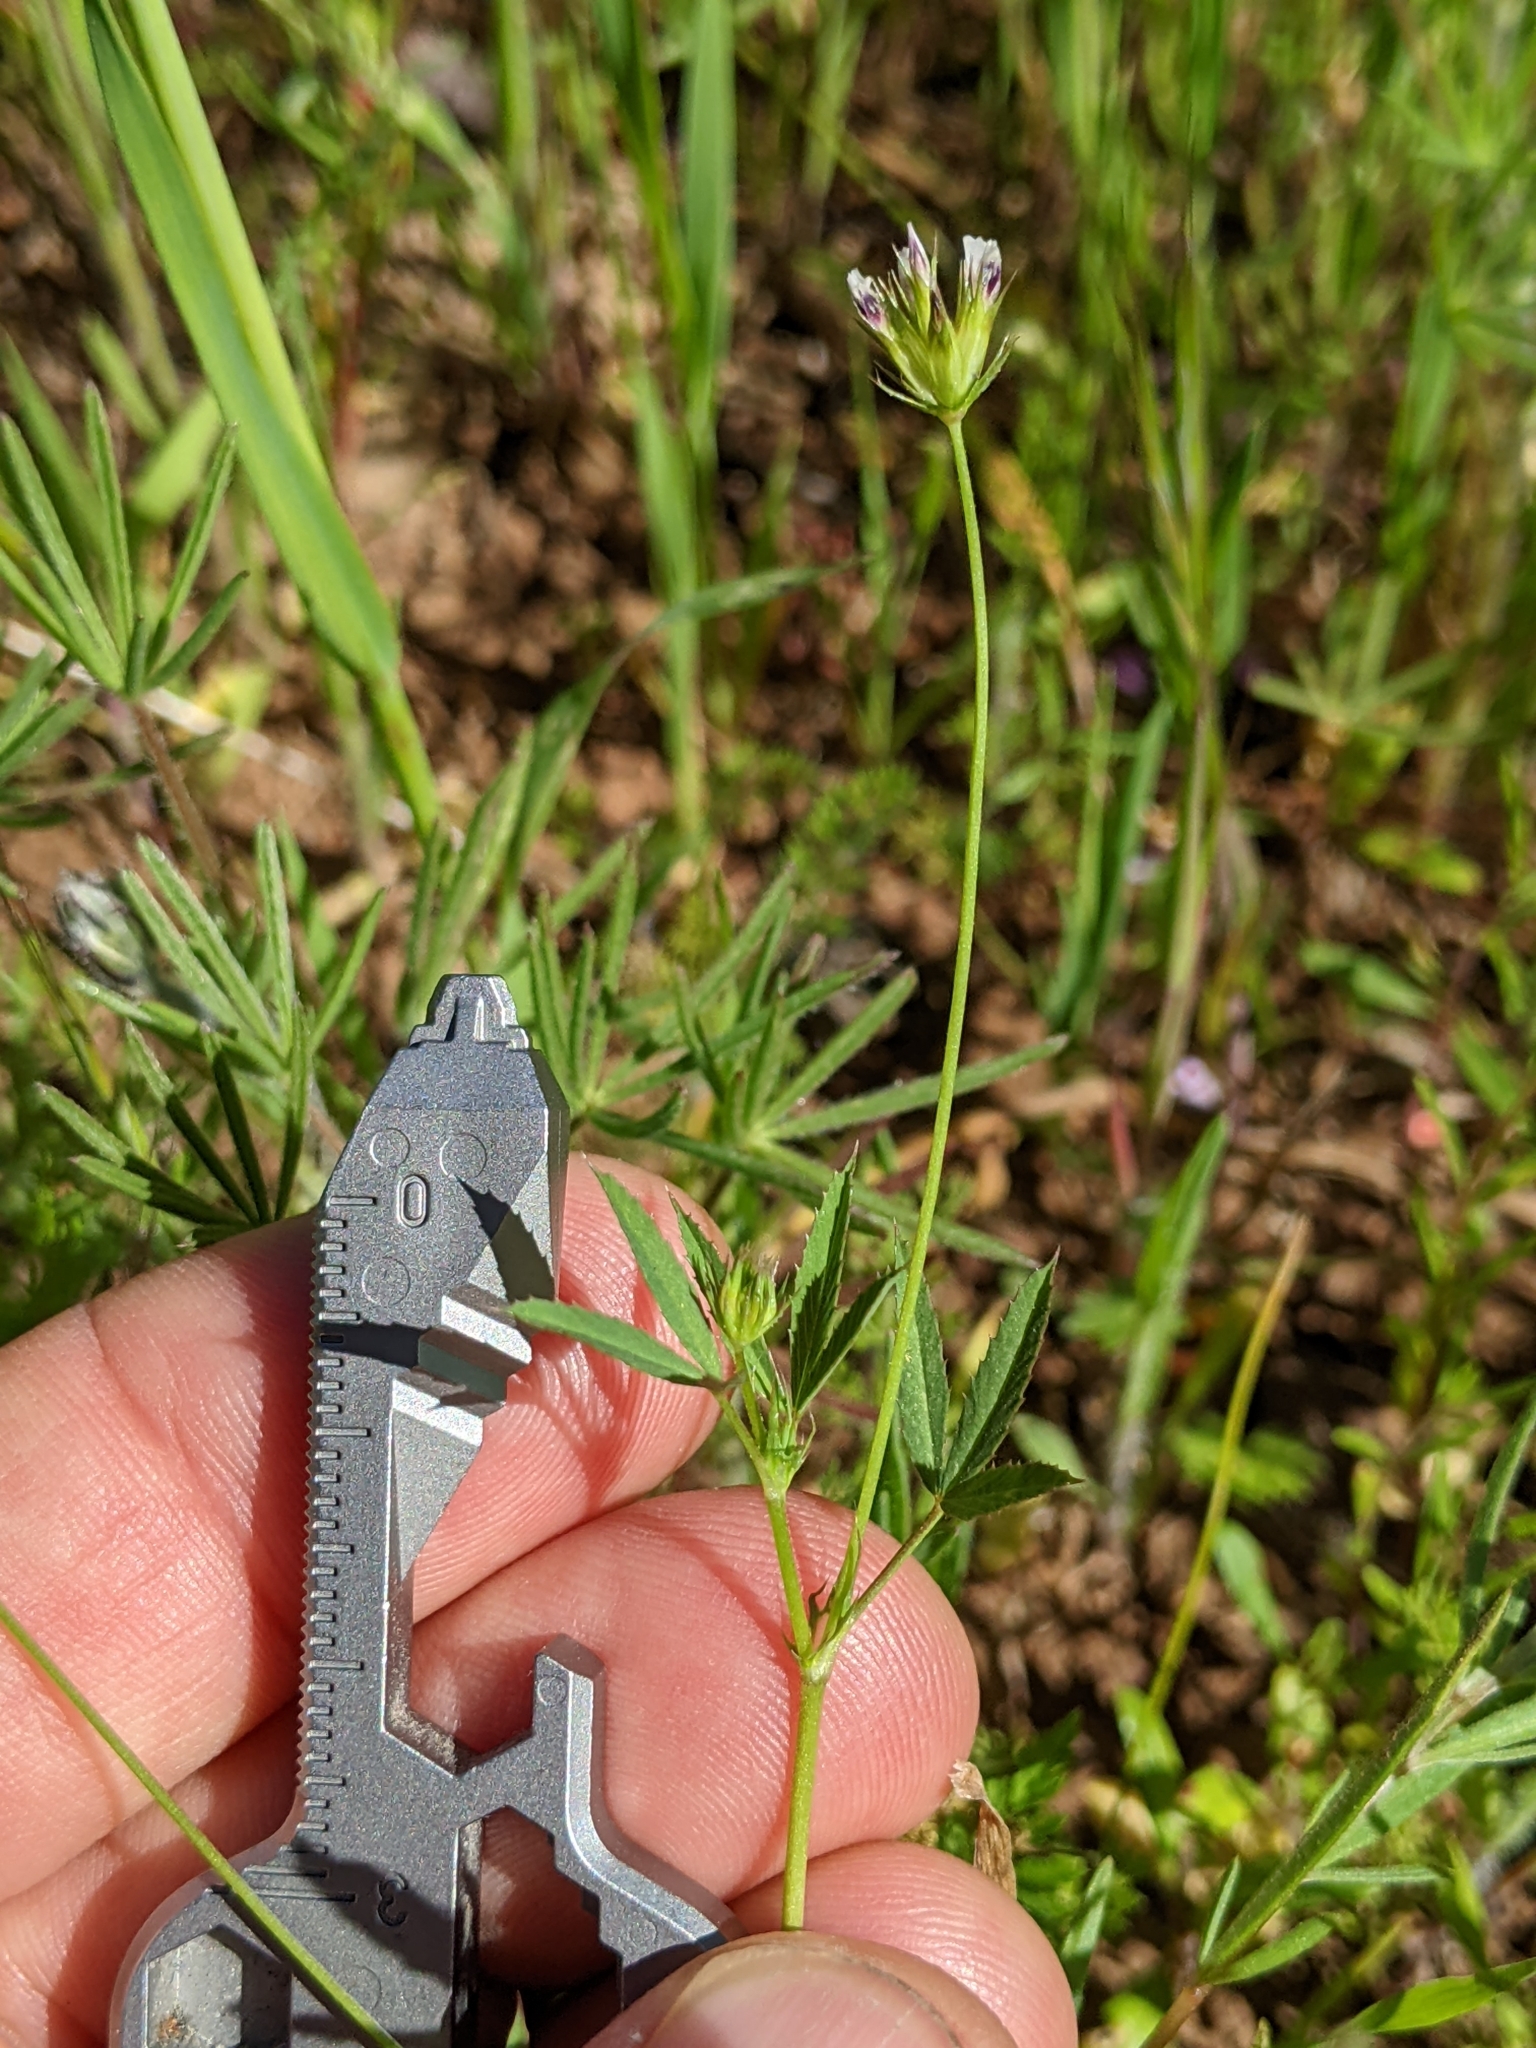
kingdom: Plantae
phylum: Tracheophyta
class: Magnoliopsida
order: Fabales
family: Fabaceae
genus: Trifolium
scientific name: Trifolium oliganthum
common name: Few-flower clover
